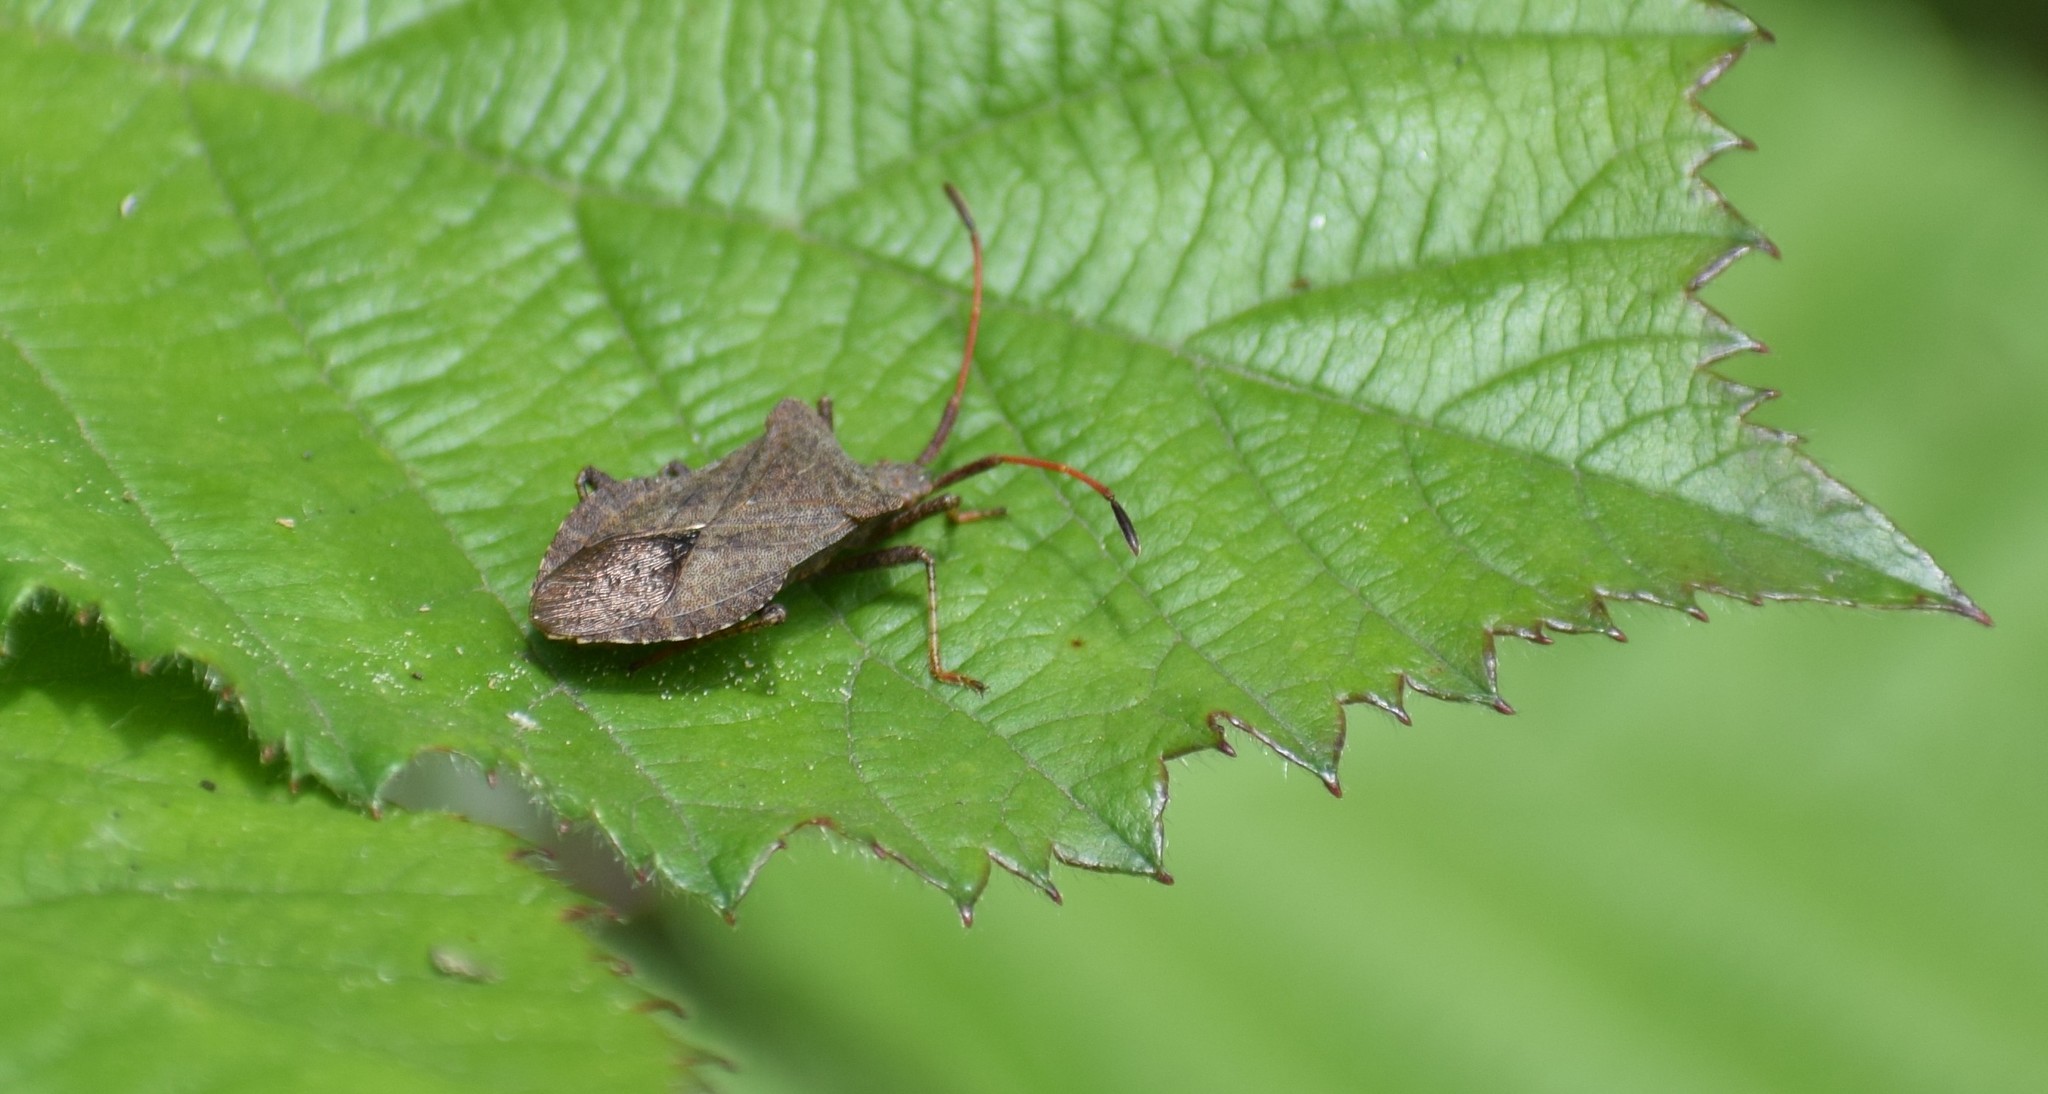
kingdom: Animalia
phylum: Arthropoda
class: Insecta
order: Hemiptera
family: Coreidae
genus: Coreus
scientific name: Coreus marginatus
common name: Dock bug
